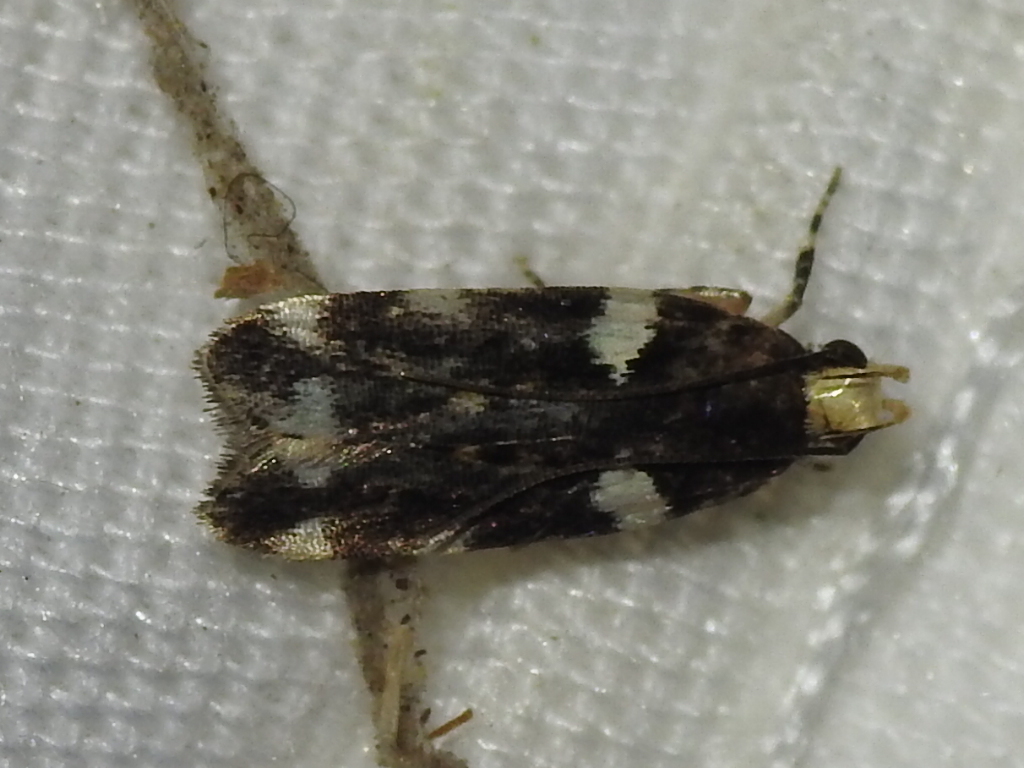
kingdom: Animalia
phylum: Arthropoda
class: Insecta
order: Lepidoptera
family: Gelechiidae
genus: Fascista
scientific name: Fascista cercerisella
